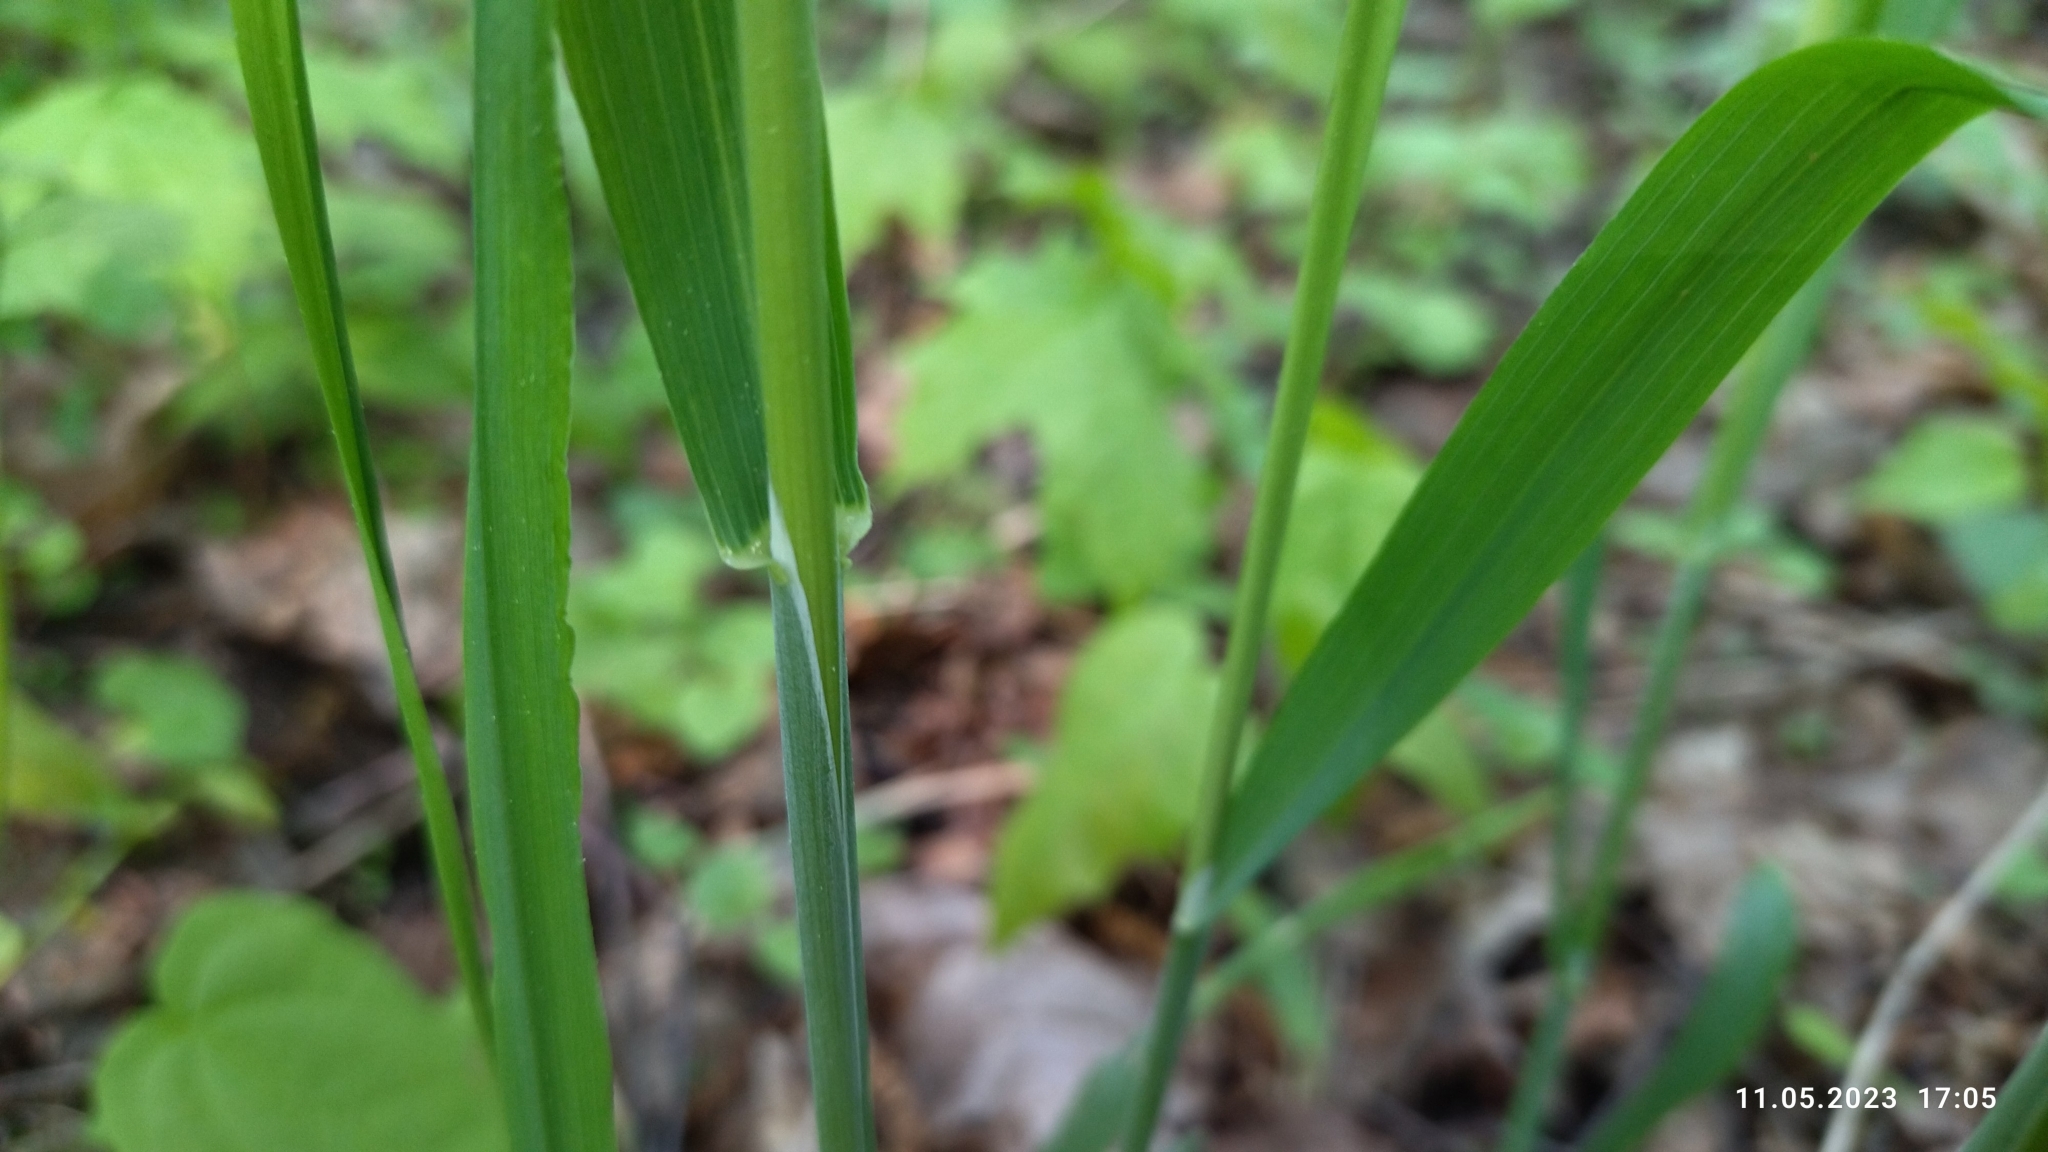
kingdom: Plantae
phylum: Tracheophyta
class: Liliopsida
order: Poales
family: Poaceae
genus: Milium
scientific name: Milium effusum
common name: Wood millet
